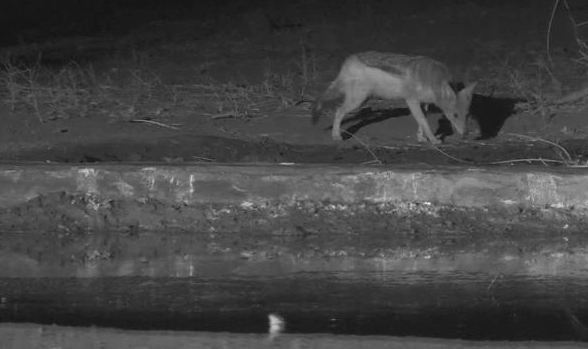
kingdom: Animalia
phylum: Chordata
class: Mammalia
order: Carnivora
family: Canidae
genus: Lupulella
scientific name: Lupulella
